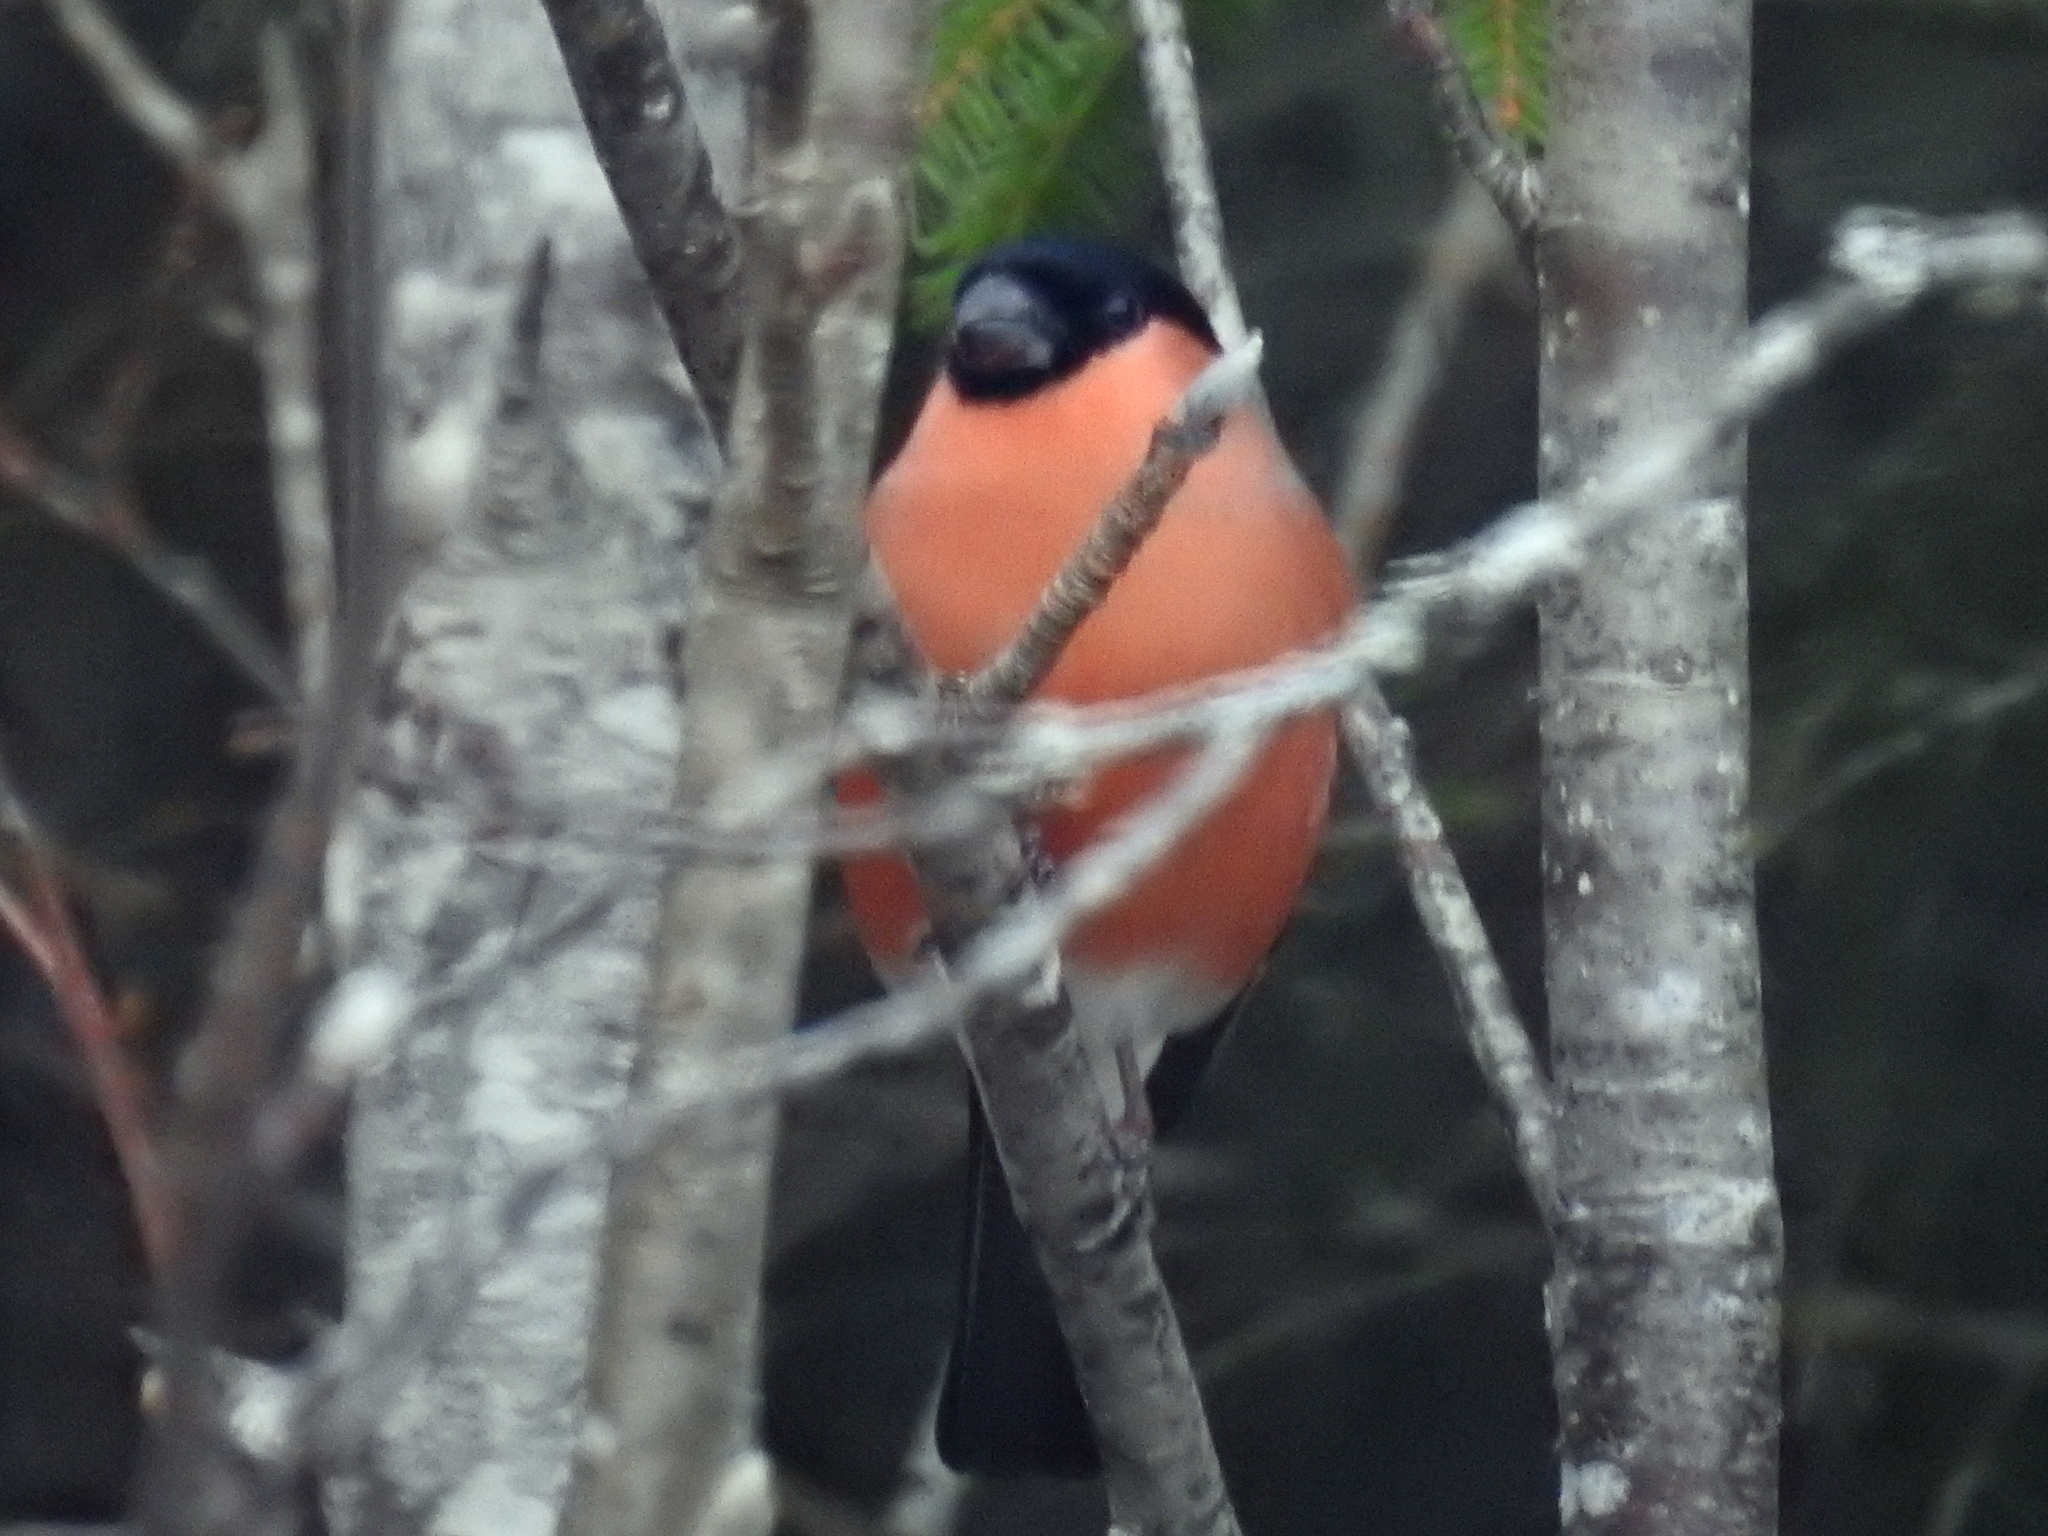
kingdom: Animalia
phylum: Chordata
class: Aves
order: Passeriformes
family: Fringillidae
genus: Pyrrhula
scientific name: Pyrrhula pyrrhula
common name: Eurasian bullfinch
